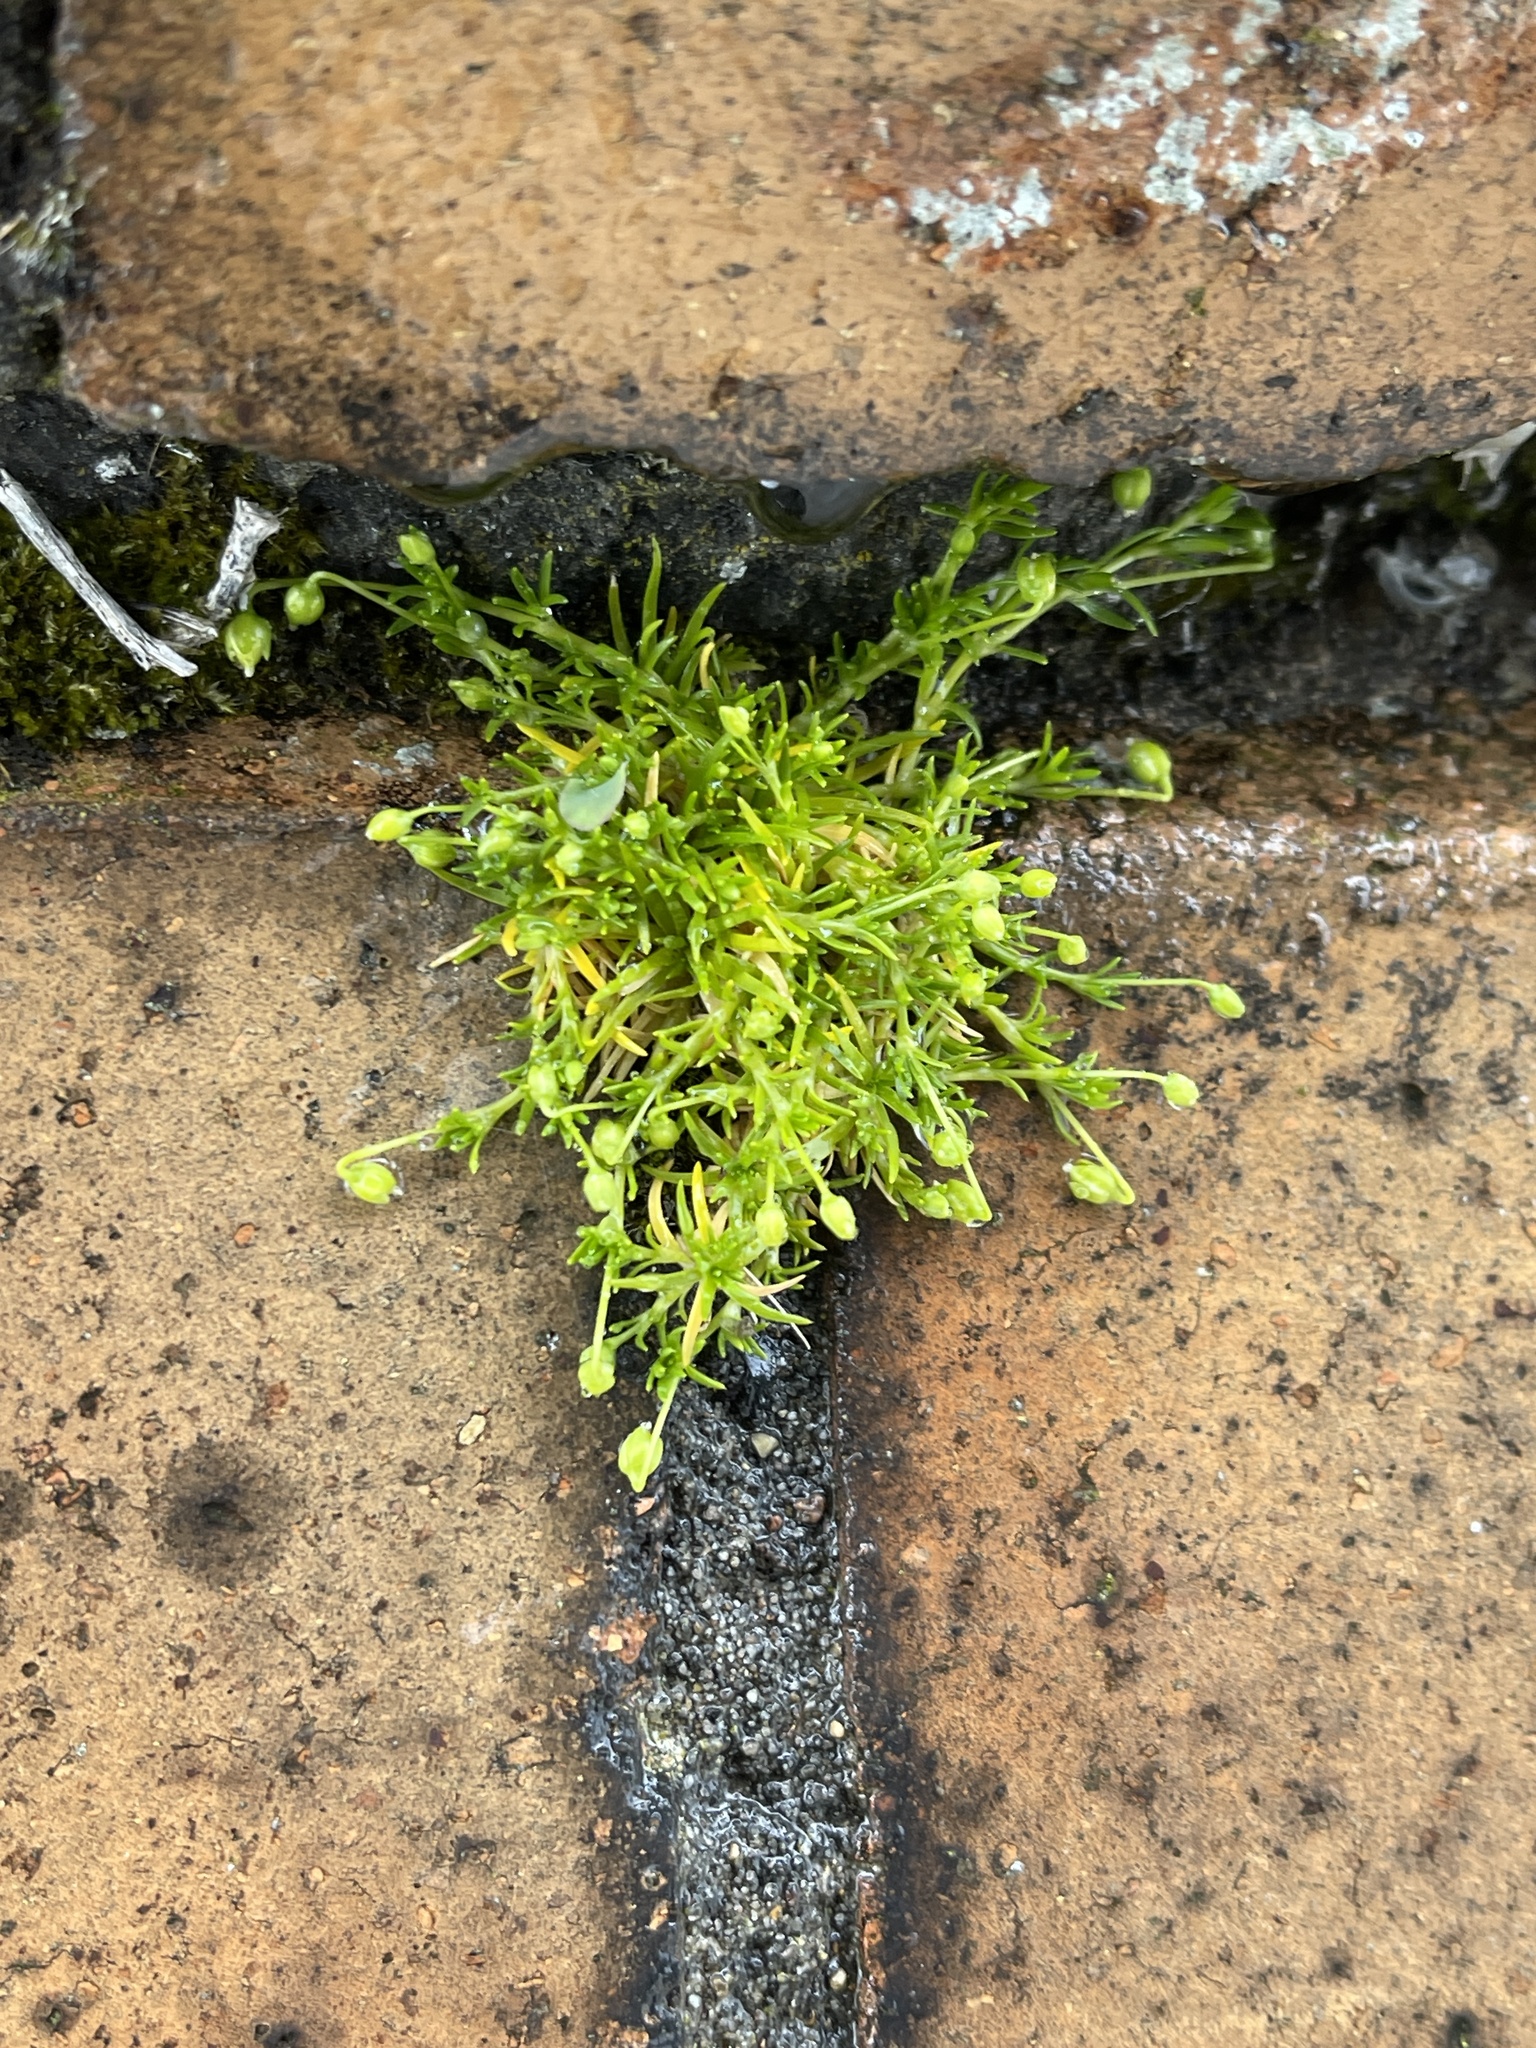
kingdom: Plantae
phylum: Tracheophyta
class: Magnoliopsida
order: Caryophyllales
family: Caryophyllaceae
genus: Sagina
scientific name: Sagina procumbens
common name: Procumbent pearlwort
